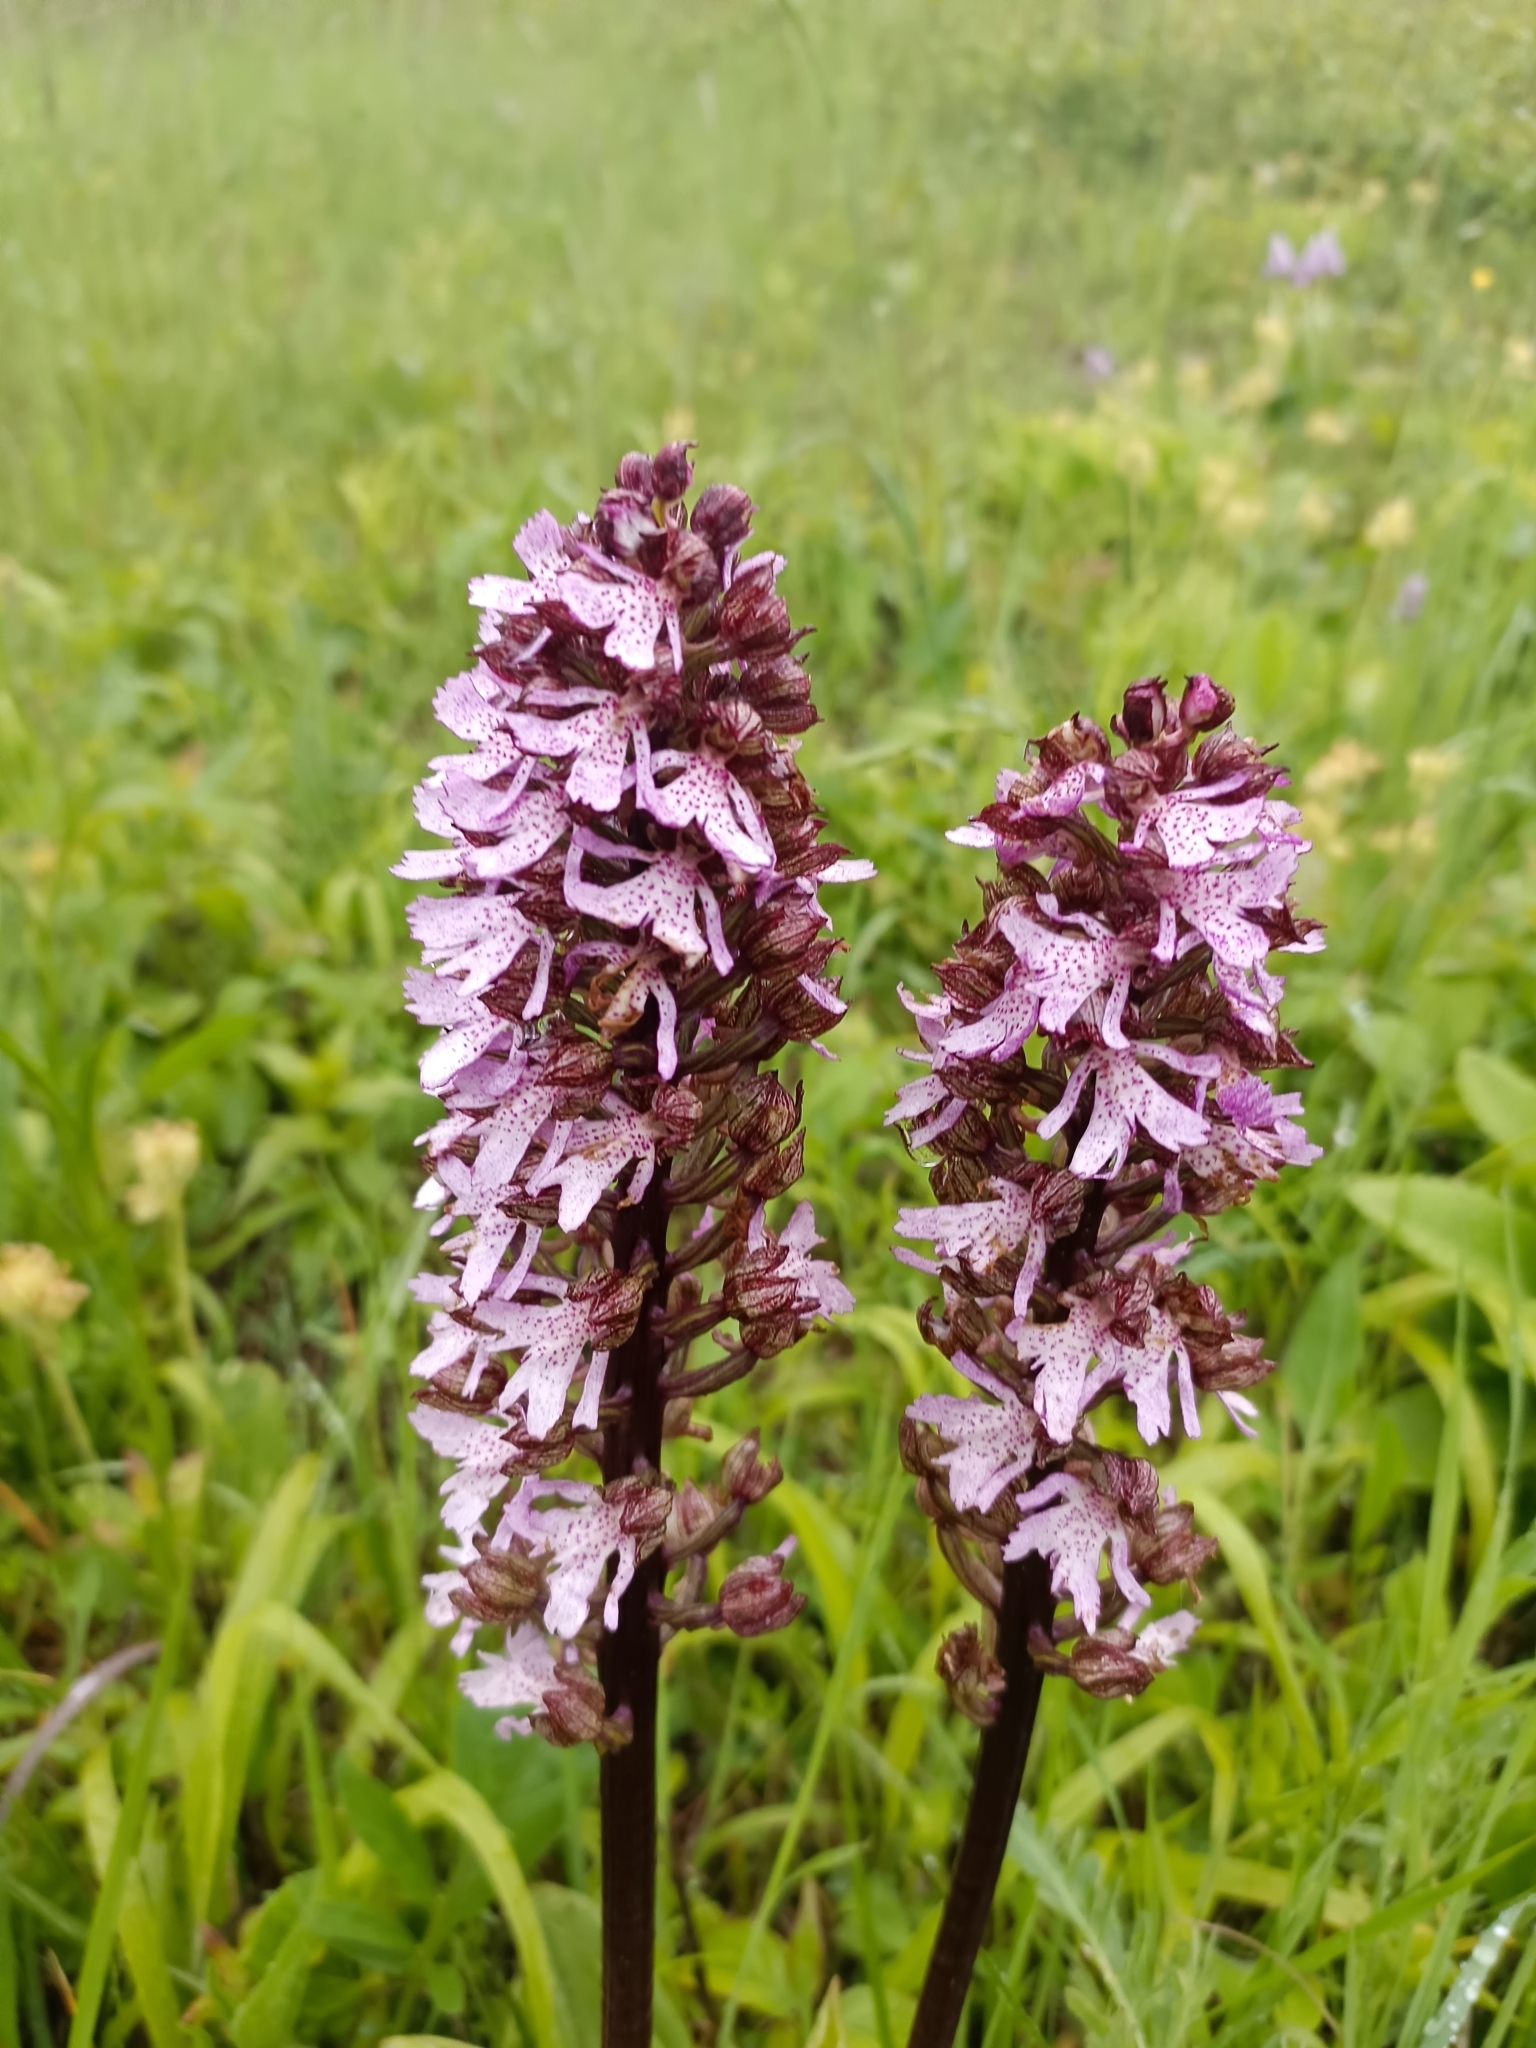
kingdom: Plantae
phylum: Tracheophyta
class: Liliopsida
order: Asparagales
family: Orchidaceae
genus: Orchis
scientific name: Orchis purpurea
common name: Lady orchid
